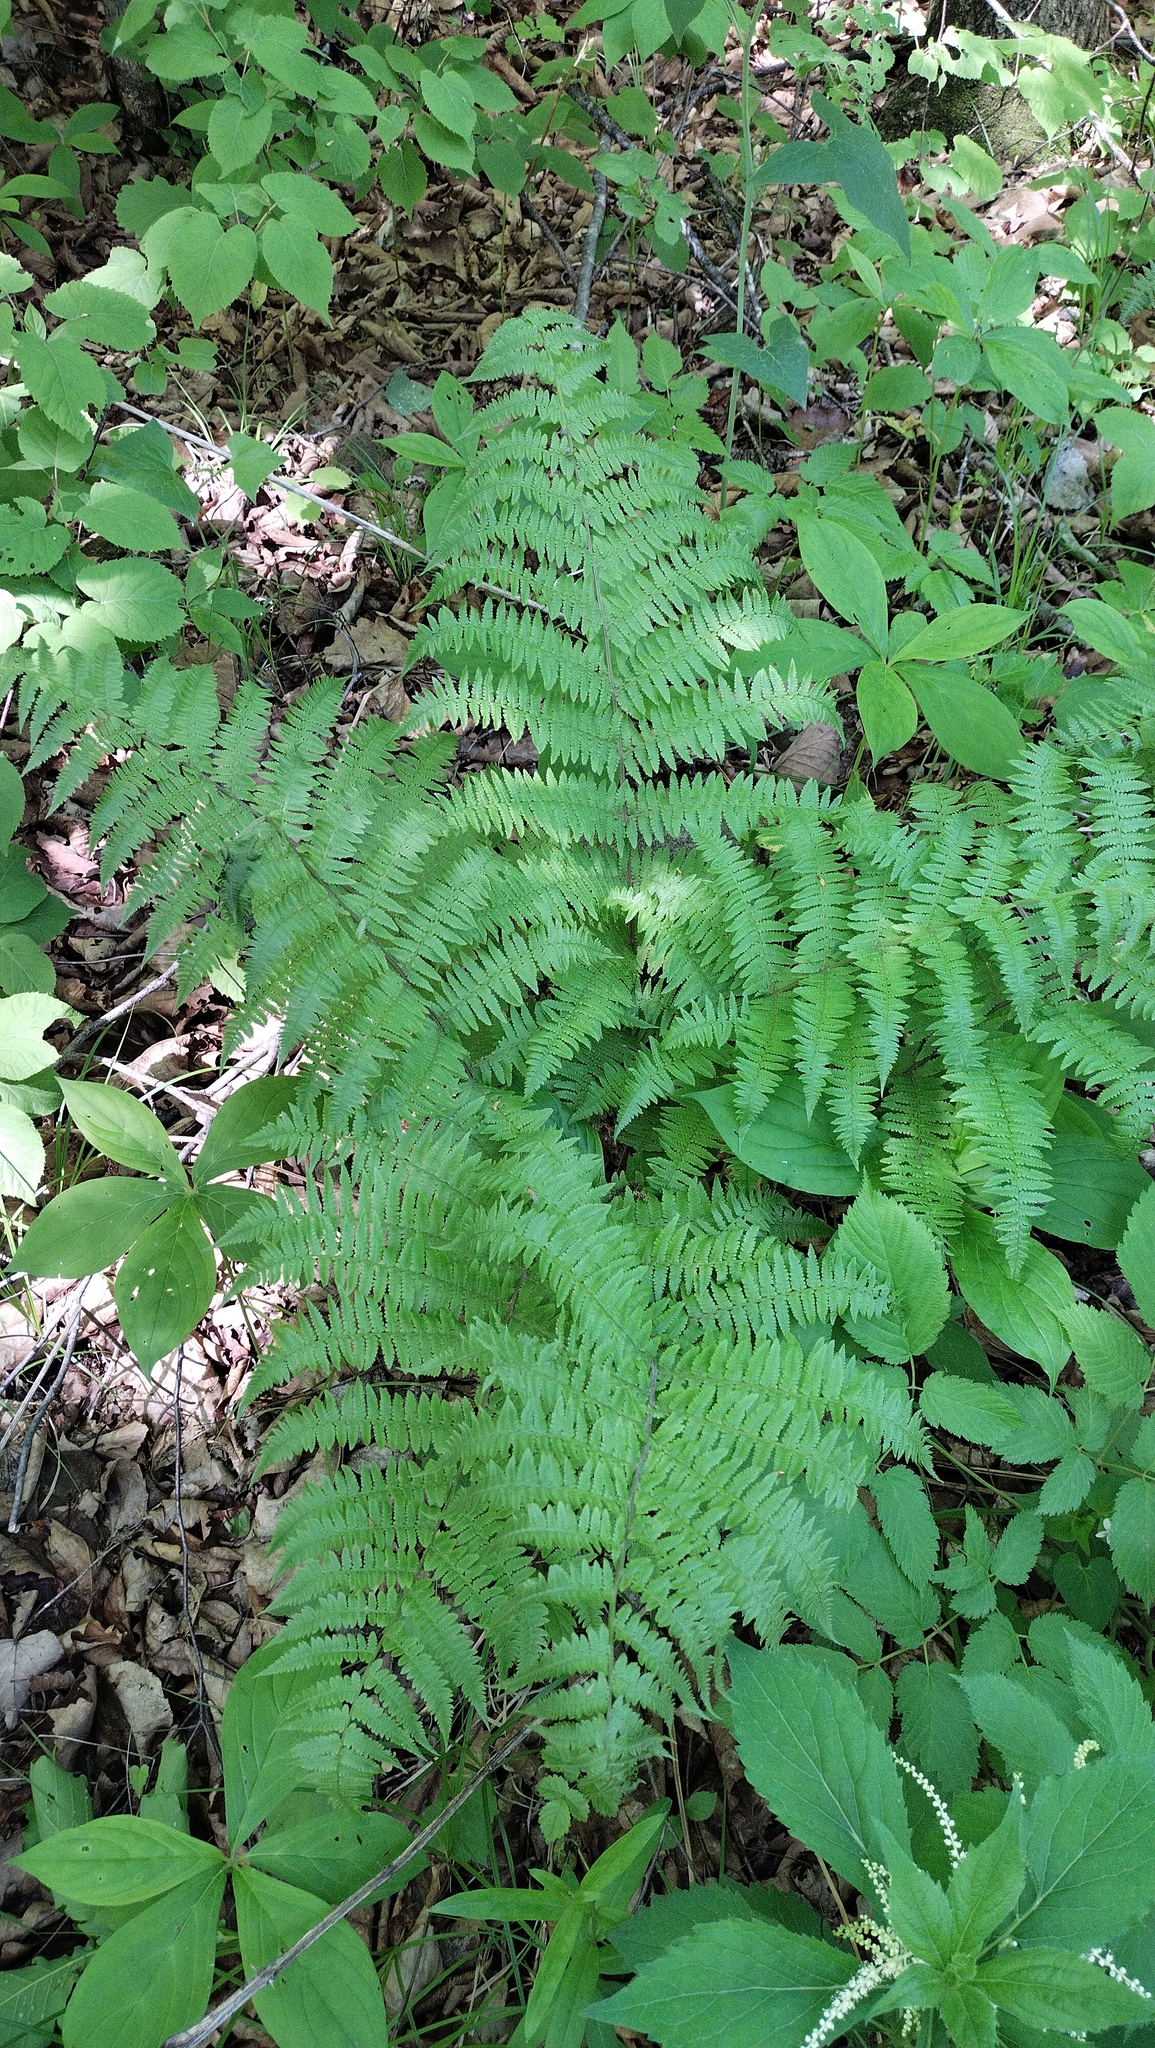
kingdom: Plantae
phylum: Tracheophyta
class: Polypodiopsida
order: Polypodiales
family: Athyriaceae
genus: Athyrium
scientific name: Athyrium filix-femina
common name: Lady fern
